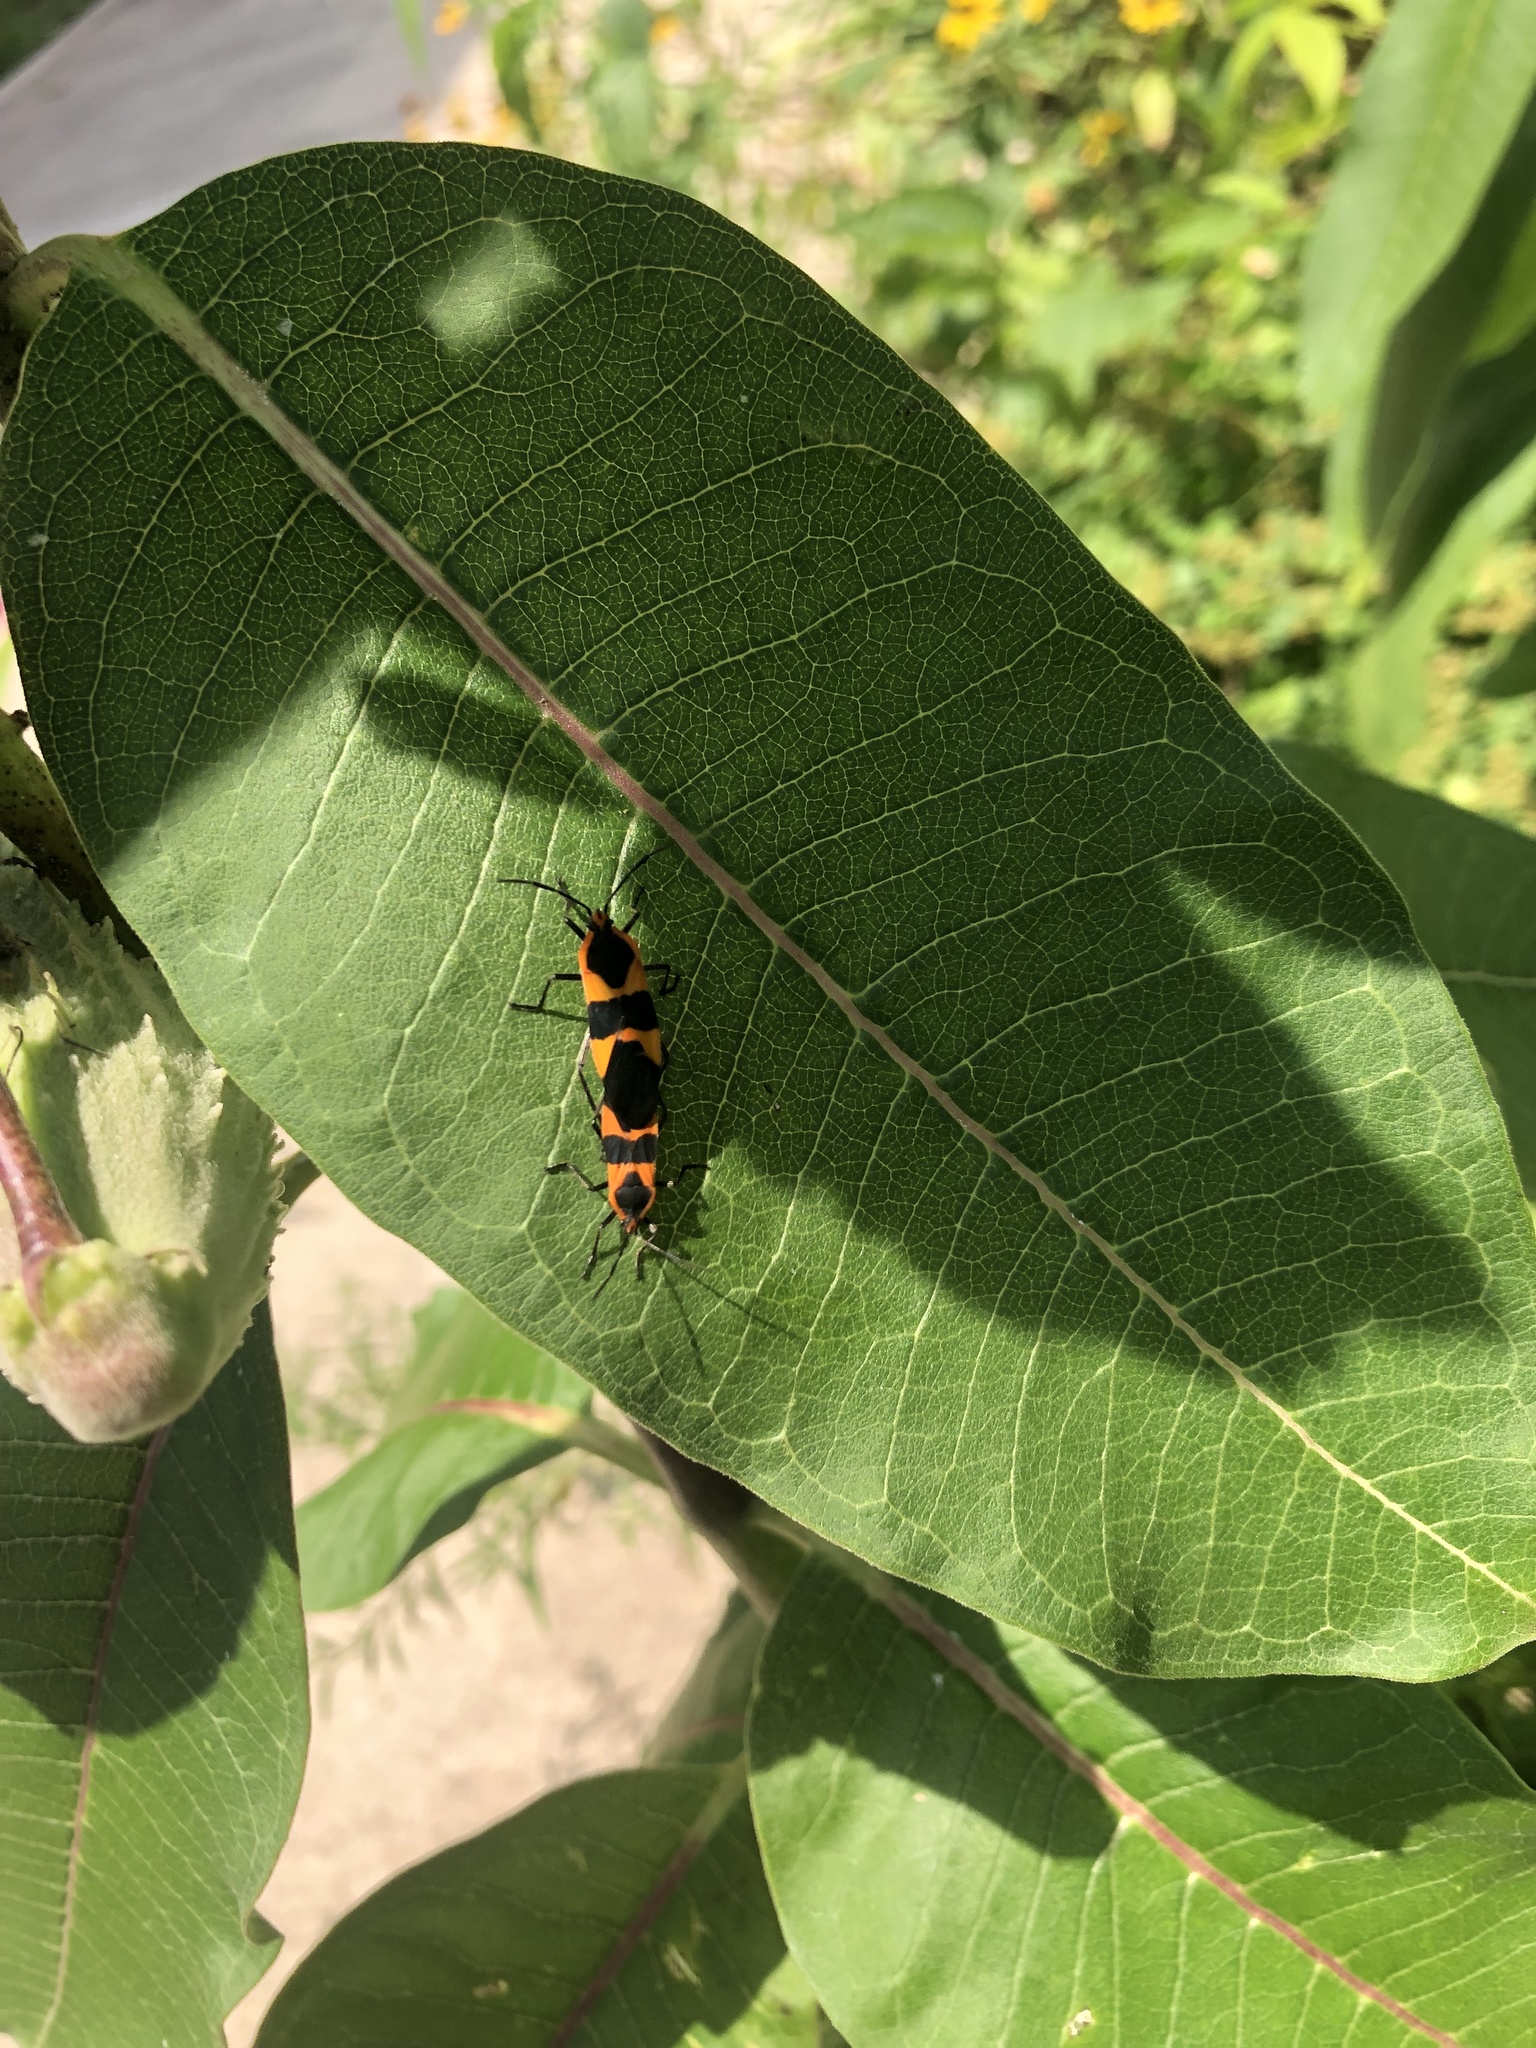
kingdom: Animalia
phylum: Arthropoda
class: Insecta
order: Hemiptera
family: Lygaeidae
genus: Oncopeltus
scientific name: Oncopeltus fasciatus
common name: Large milkweed bug
